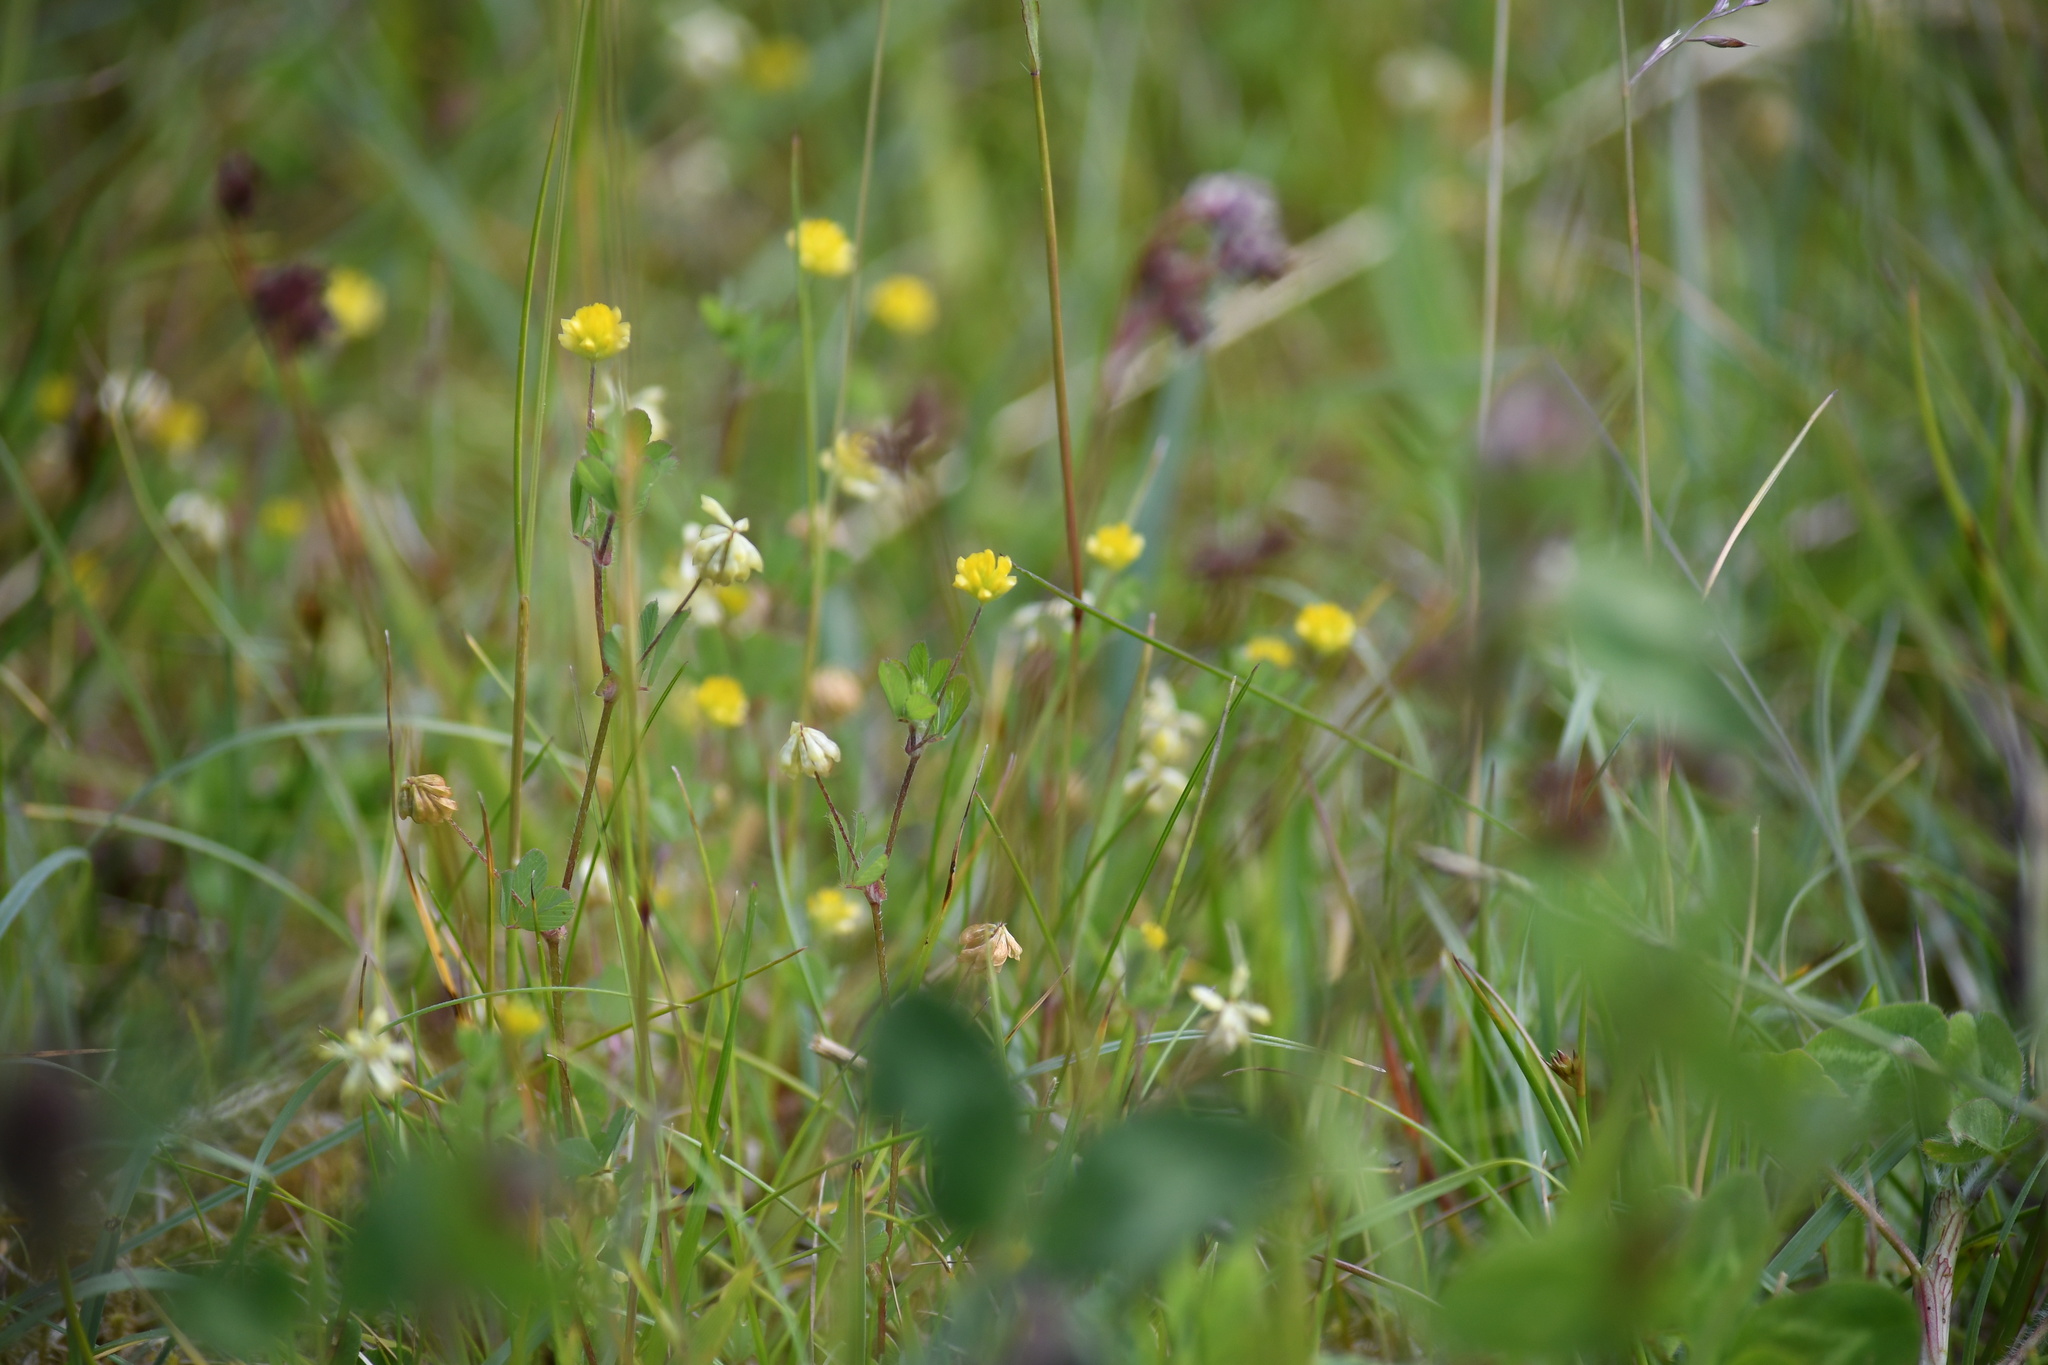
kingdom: Plantae
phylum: Tracheophyta
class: Magnoliopsida
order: Fabales
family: Fabaceae
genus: Trifolium
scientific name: Trifolium dubium
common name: Suckling clover
